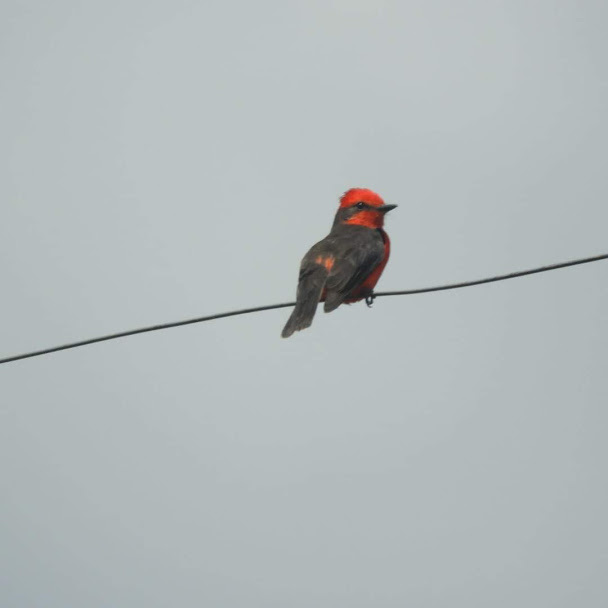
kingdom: Animalia
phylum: Chordata
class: Aves
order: Passeriformes
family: Tyrannidae
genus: Pyrocephalus
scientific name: Pyrocephalus rubinus
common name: Vermilion flycatcher
